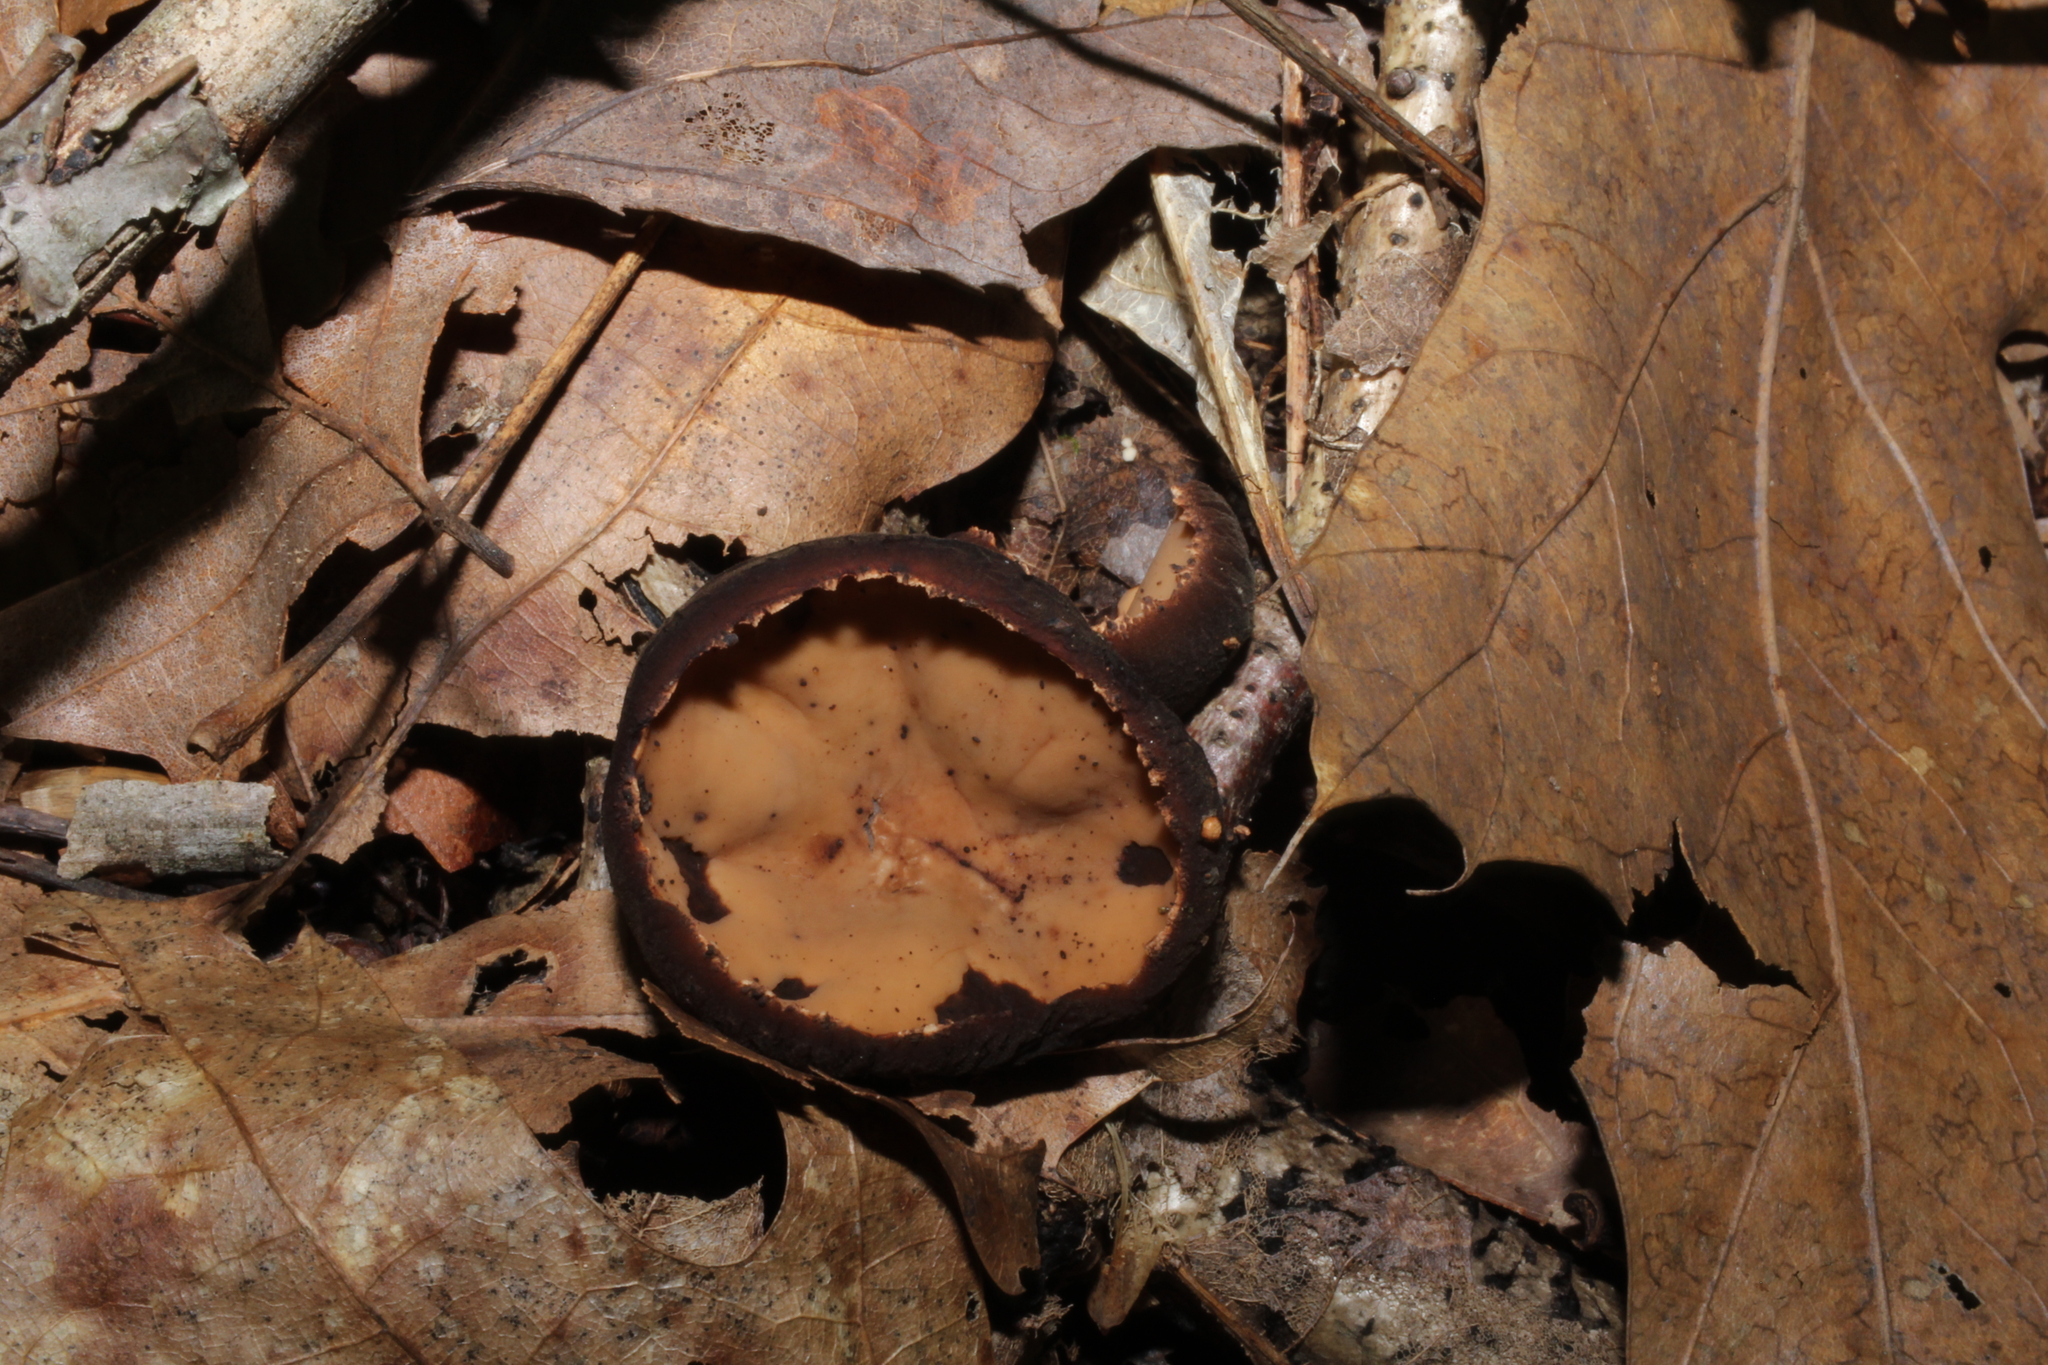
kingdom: Fungi
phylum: Ascomycota
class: Pezizomycetes
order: Pezizales
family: Sarcosomataceae
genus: Galiella
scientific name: Galiella rufa
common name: Hairy rubber cup
